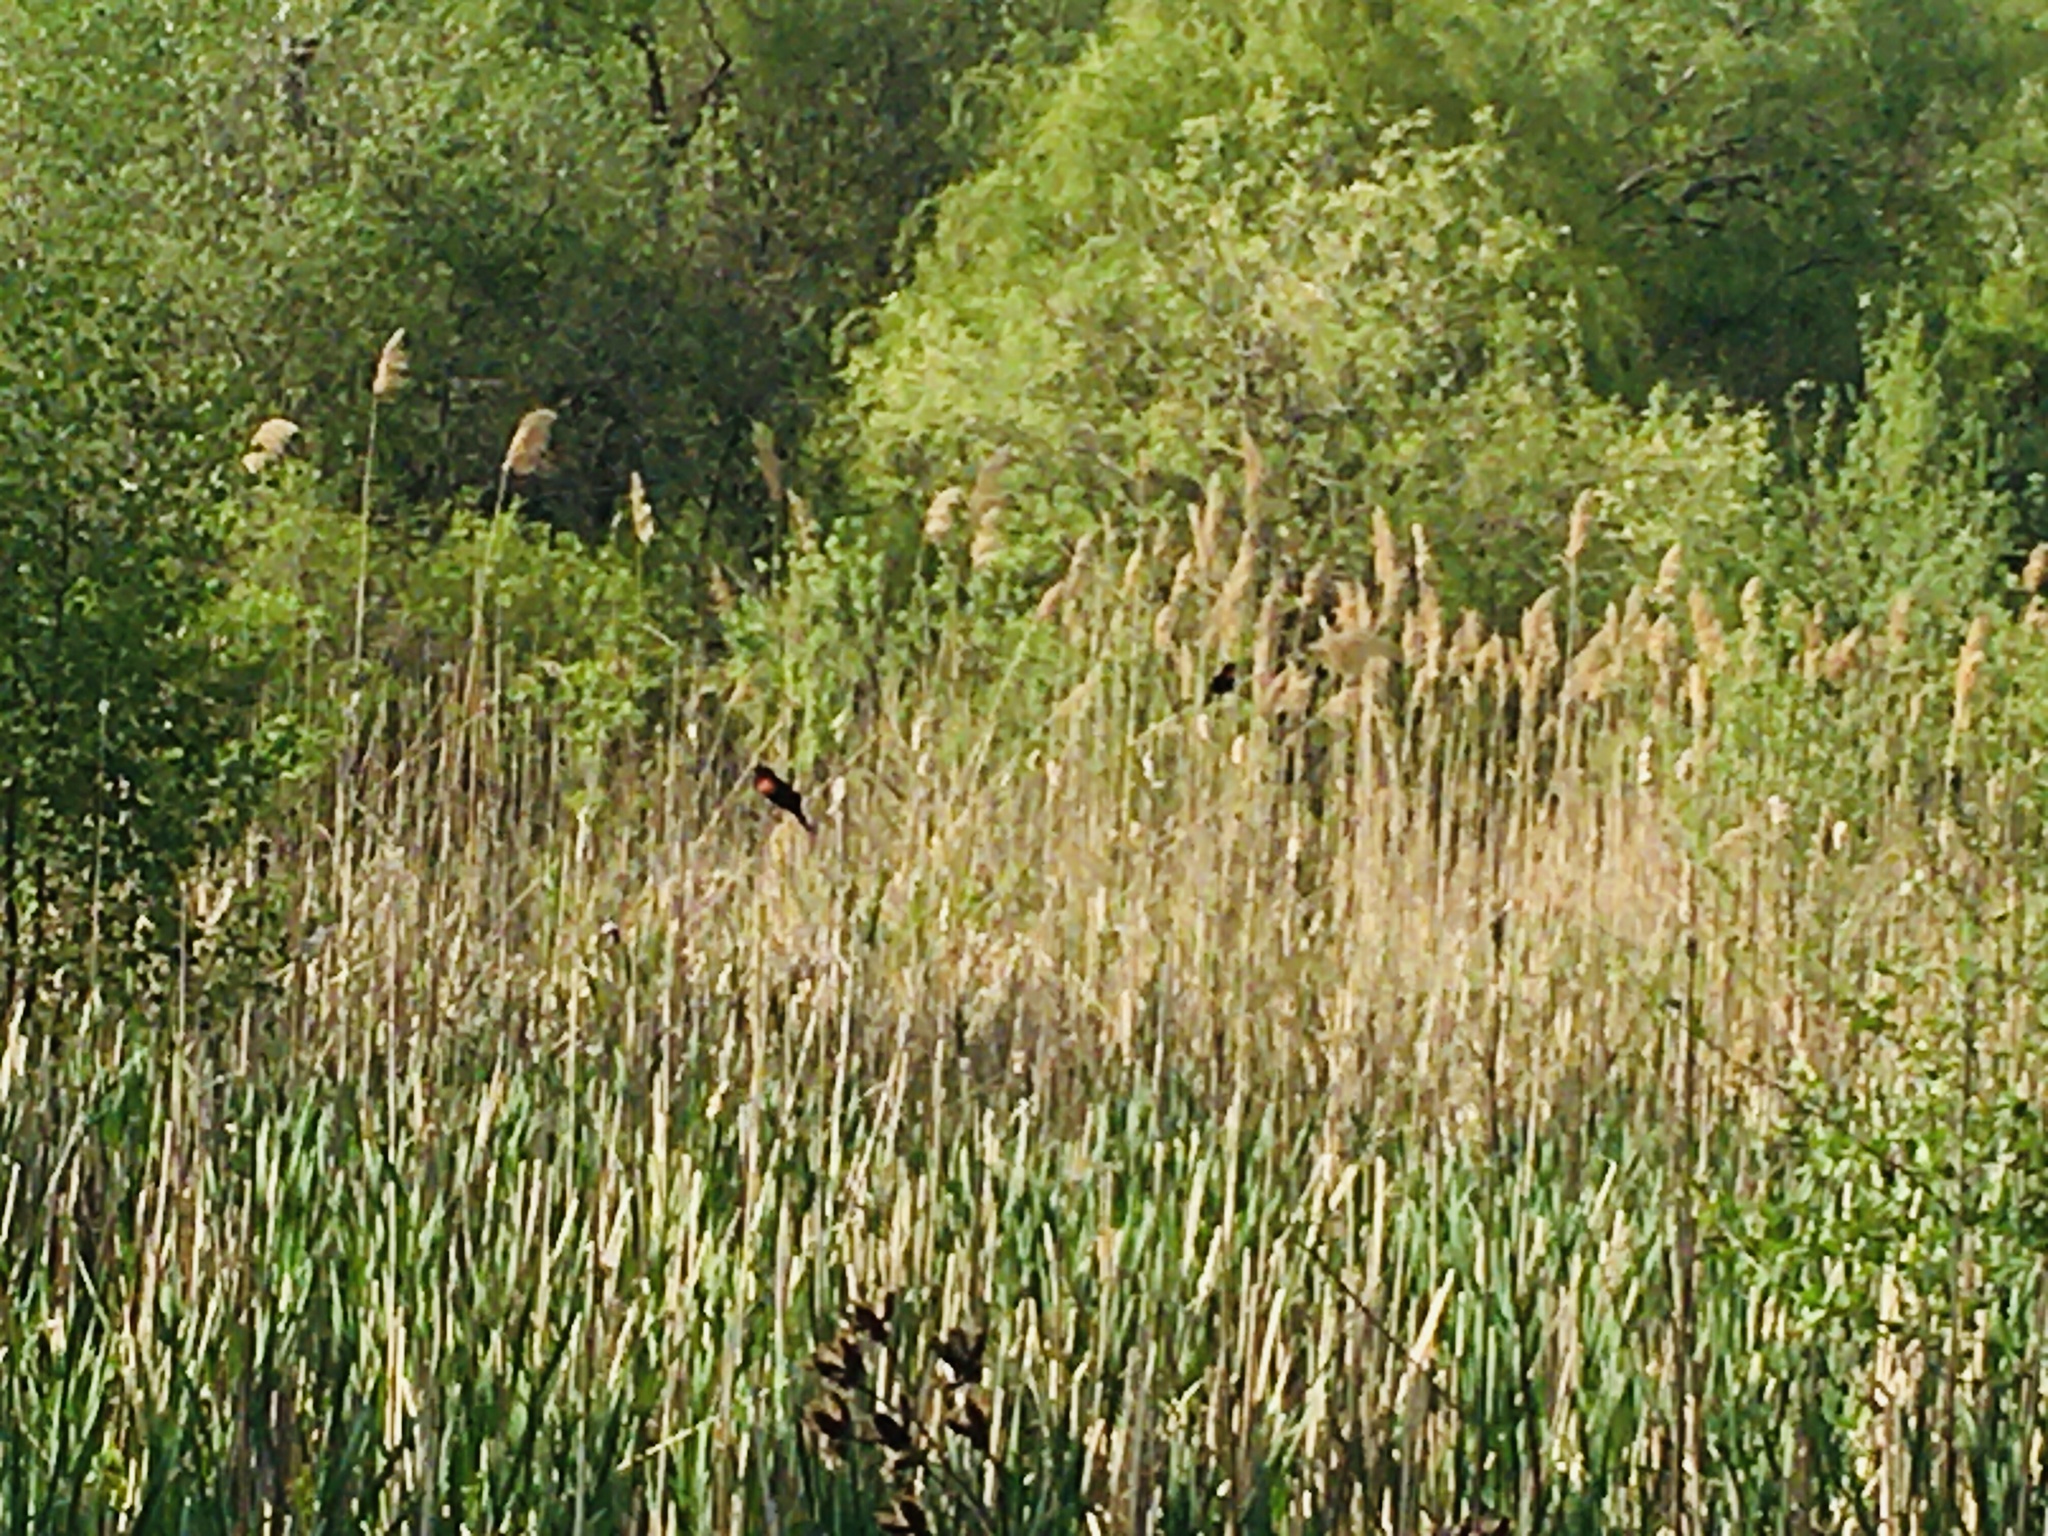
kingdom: Animalia
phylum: Chordata
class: Aves
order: Passeriformes
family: Icteridae
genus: Agelaius
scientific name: Agelaius phoeniceus
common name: Red-winged blackbird
